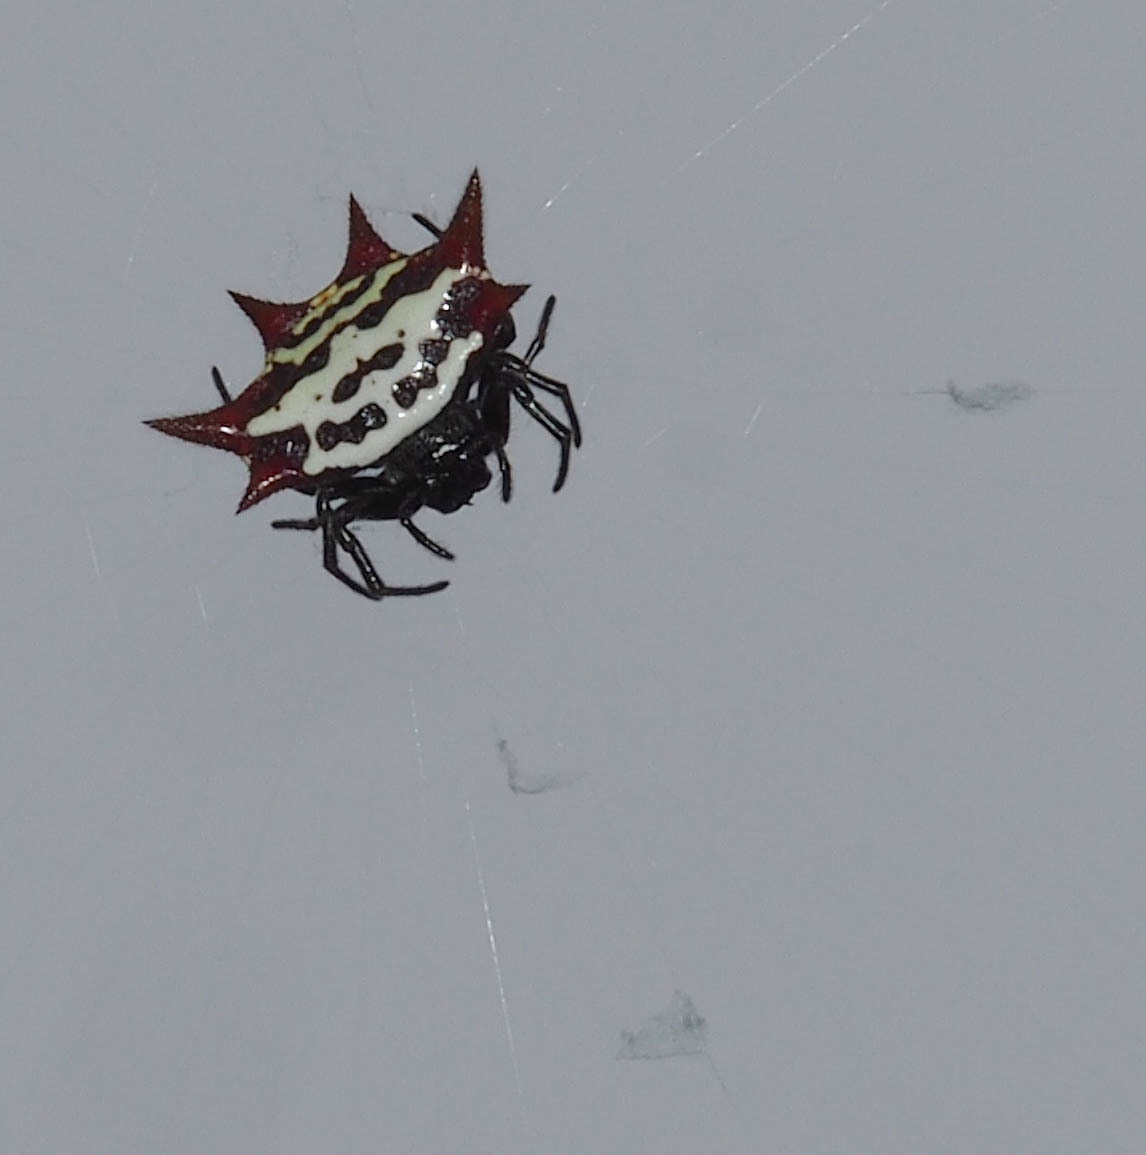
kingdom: Animalia
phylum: Arthropoda
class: Arachnida
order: Araneae
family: Araneidae
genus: Gasteracantha
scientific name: Gasteracantha cancriformis
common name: Orb weavers
